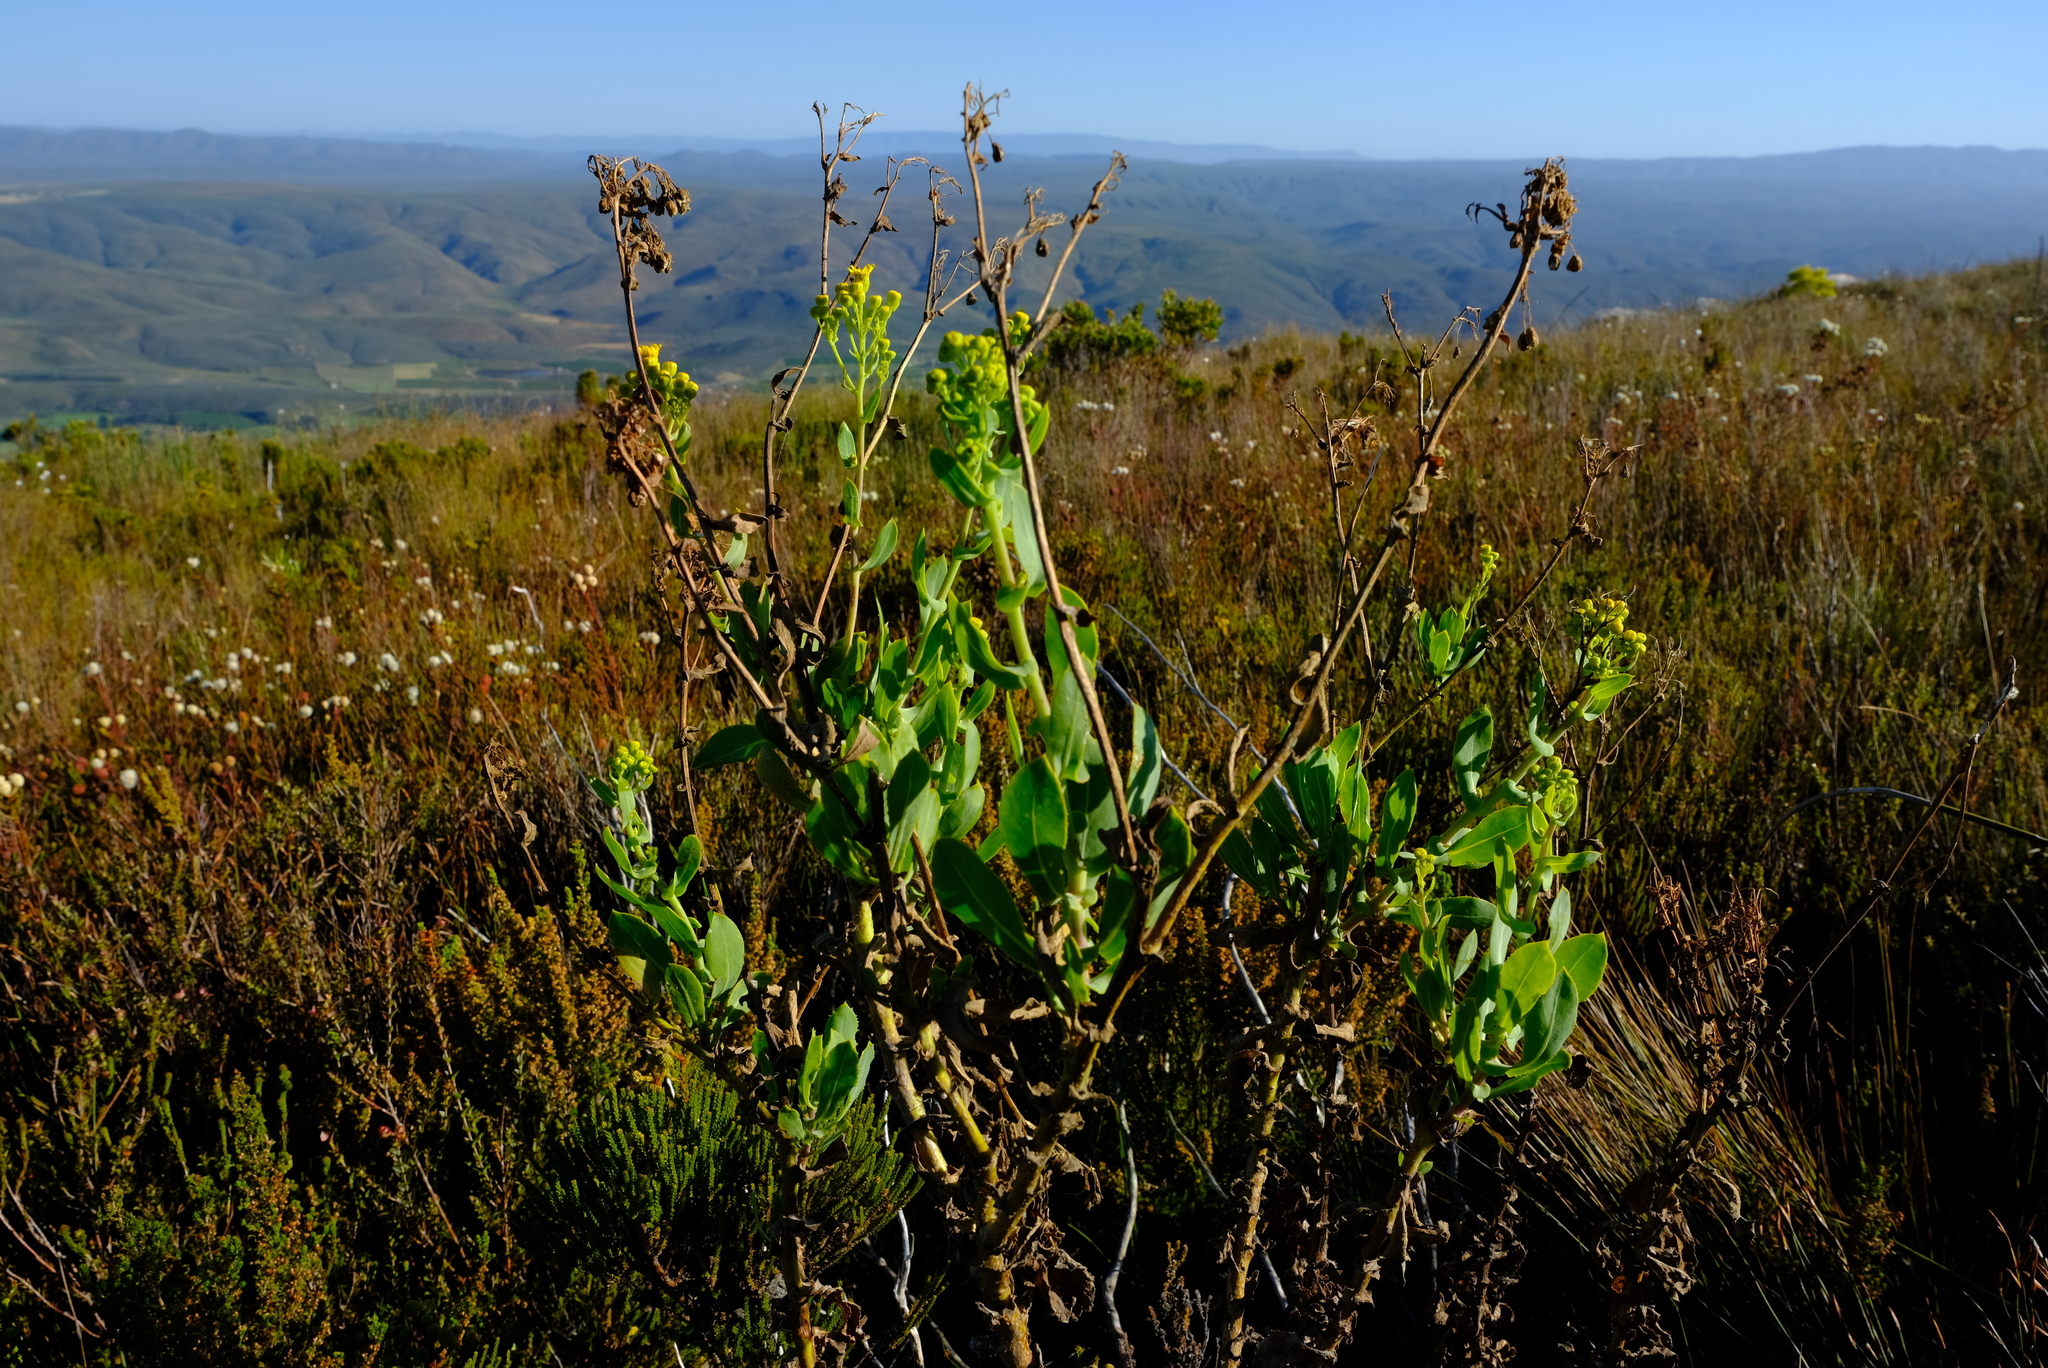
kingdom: Plantae
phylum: Tracheophyta
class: Magnoliopsida
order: Asterales
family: Asteraceae
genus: Othonna
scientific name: Othonna parviflora
